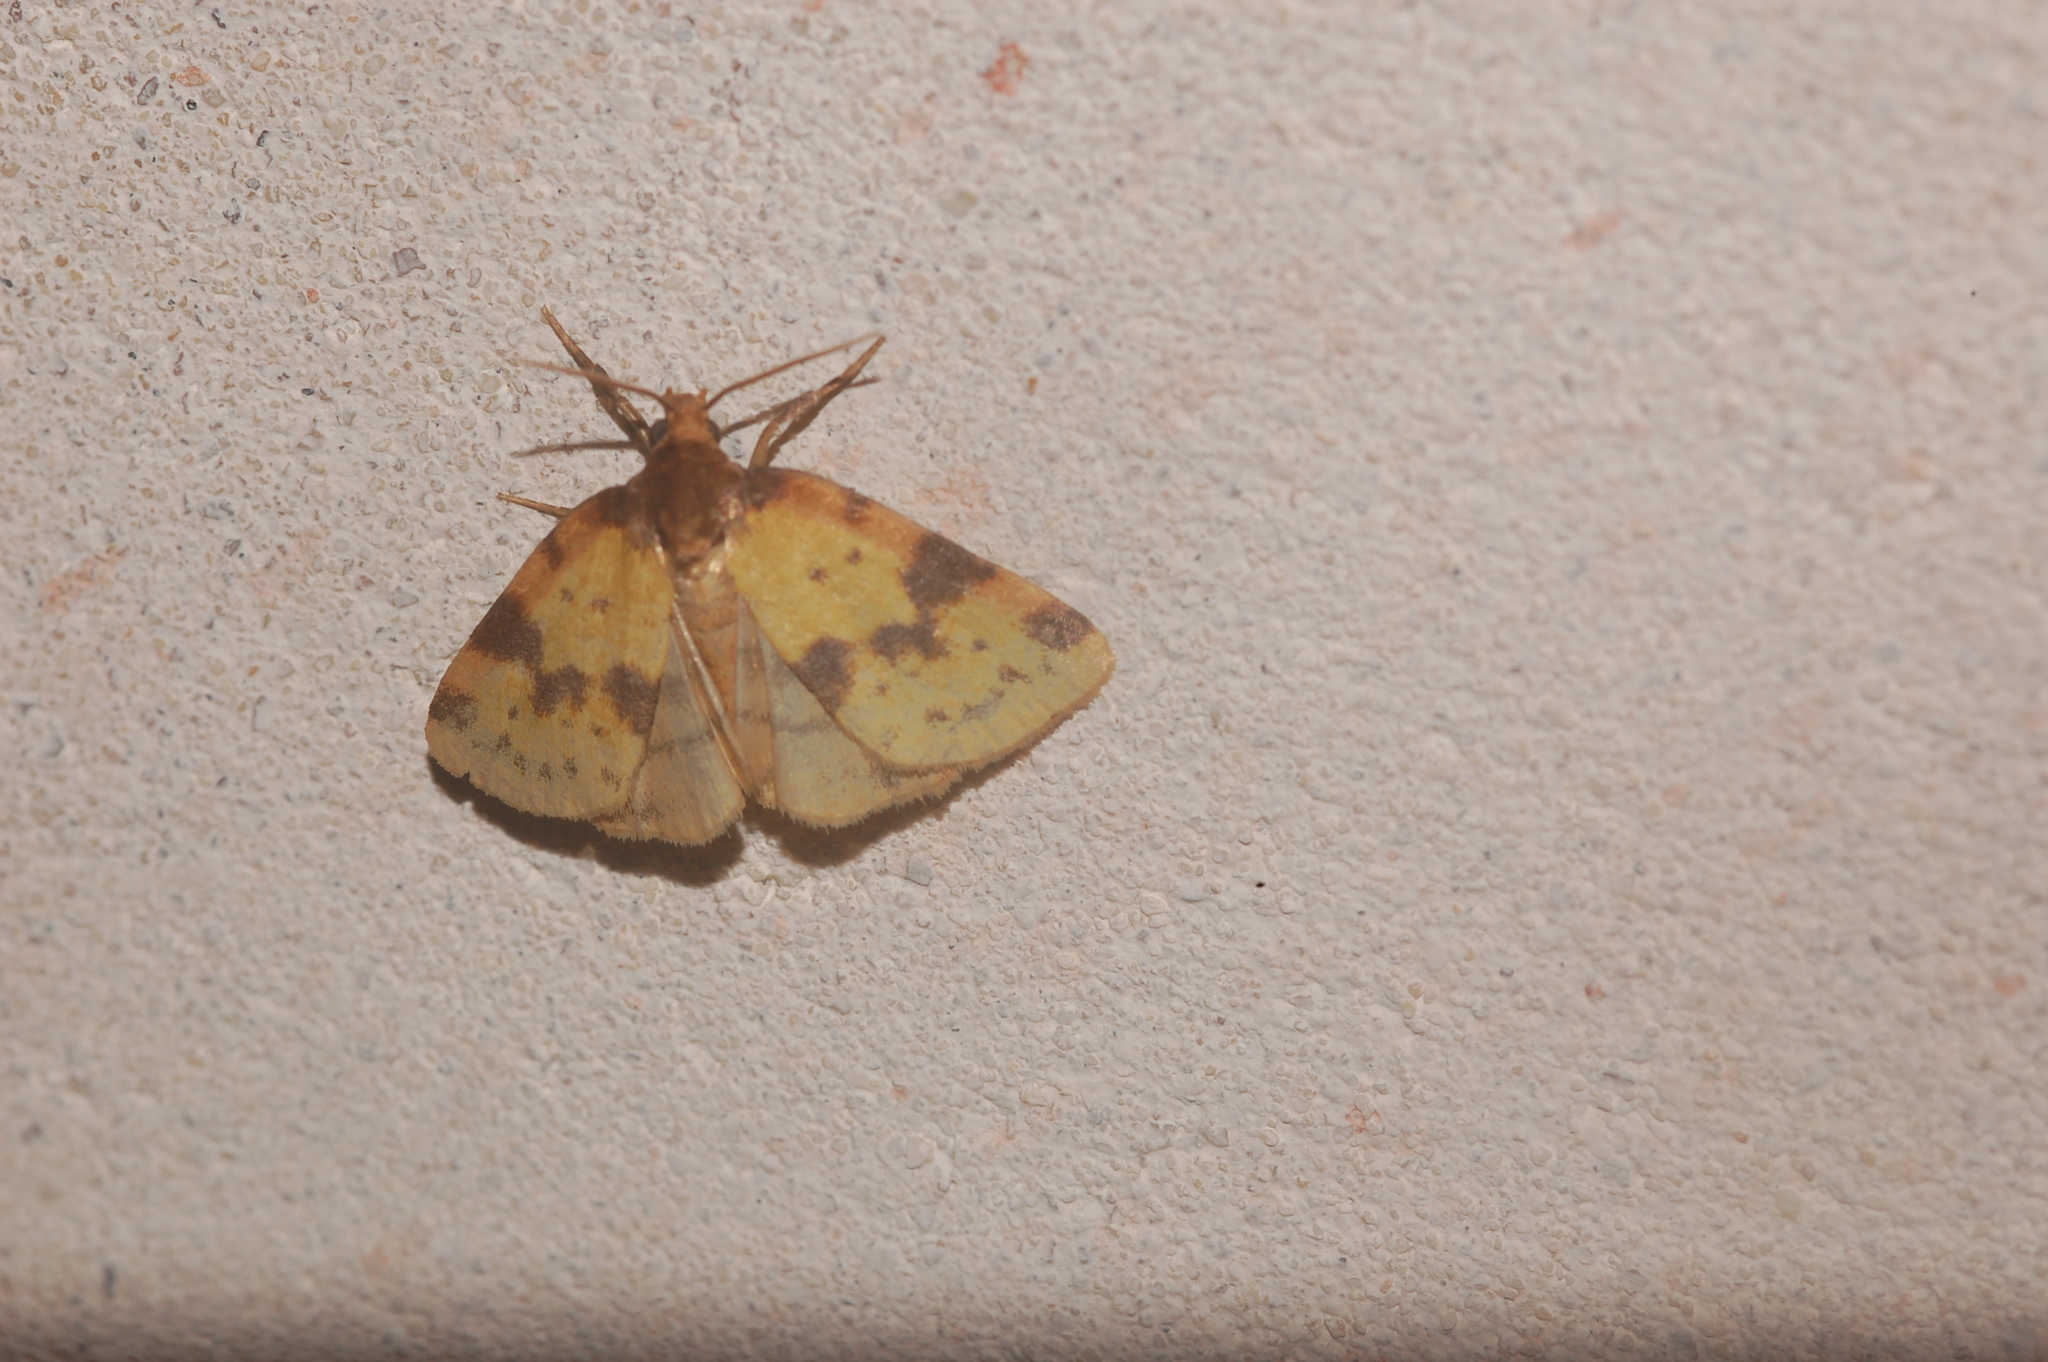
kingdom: Animalia
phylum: Arthropoda
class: Insecta
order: Lepidoptera
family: Noctuidae
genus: Azenia
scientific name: Azenia obtusa
